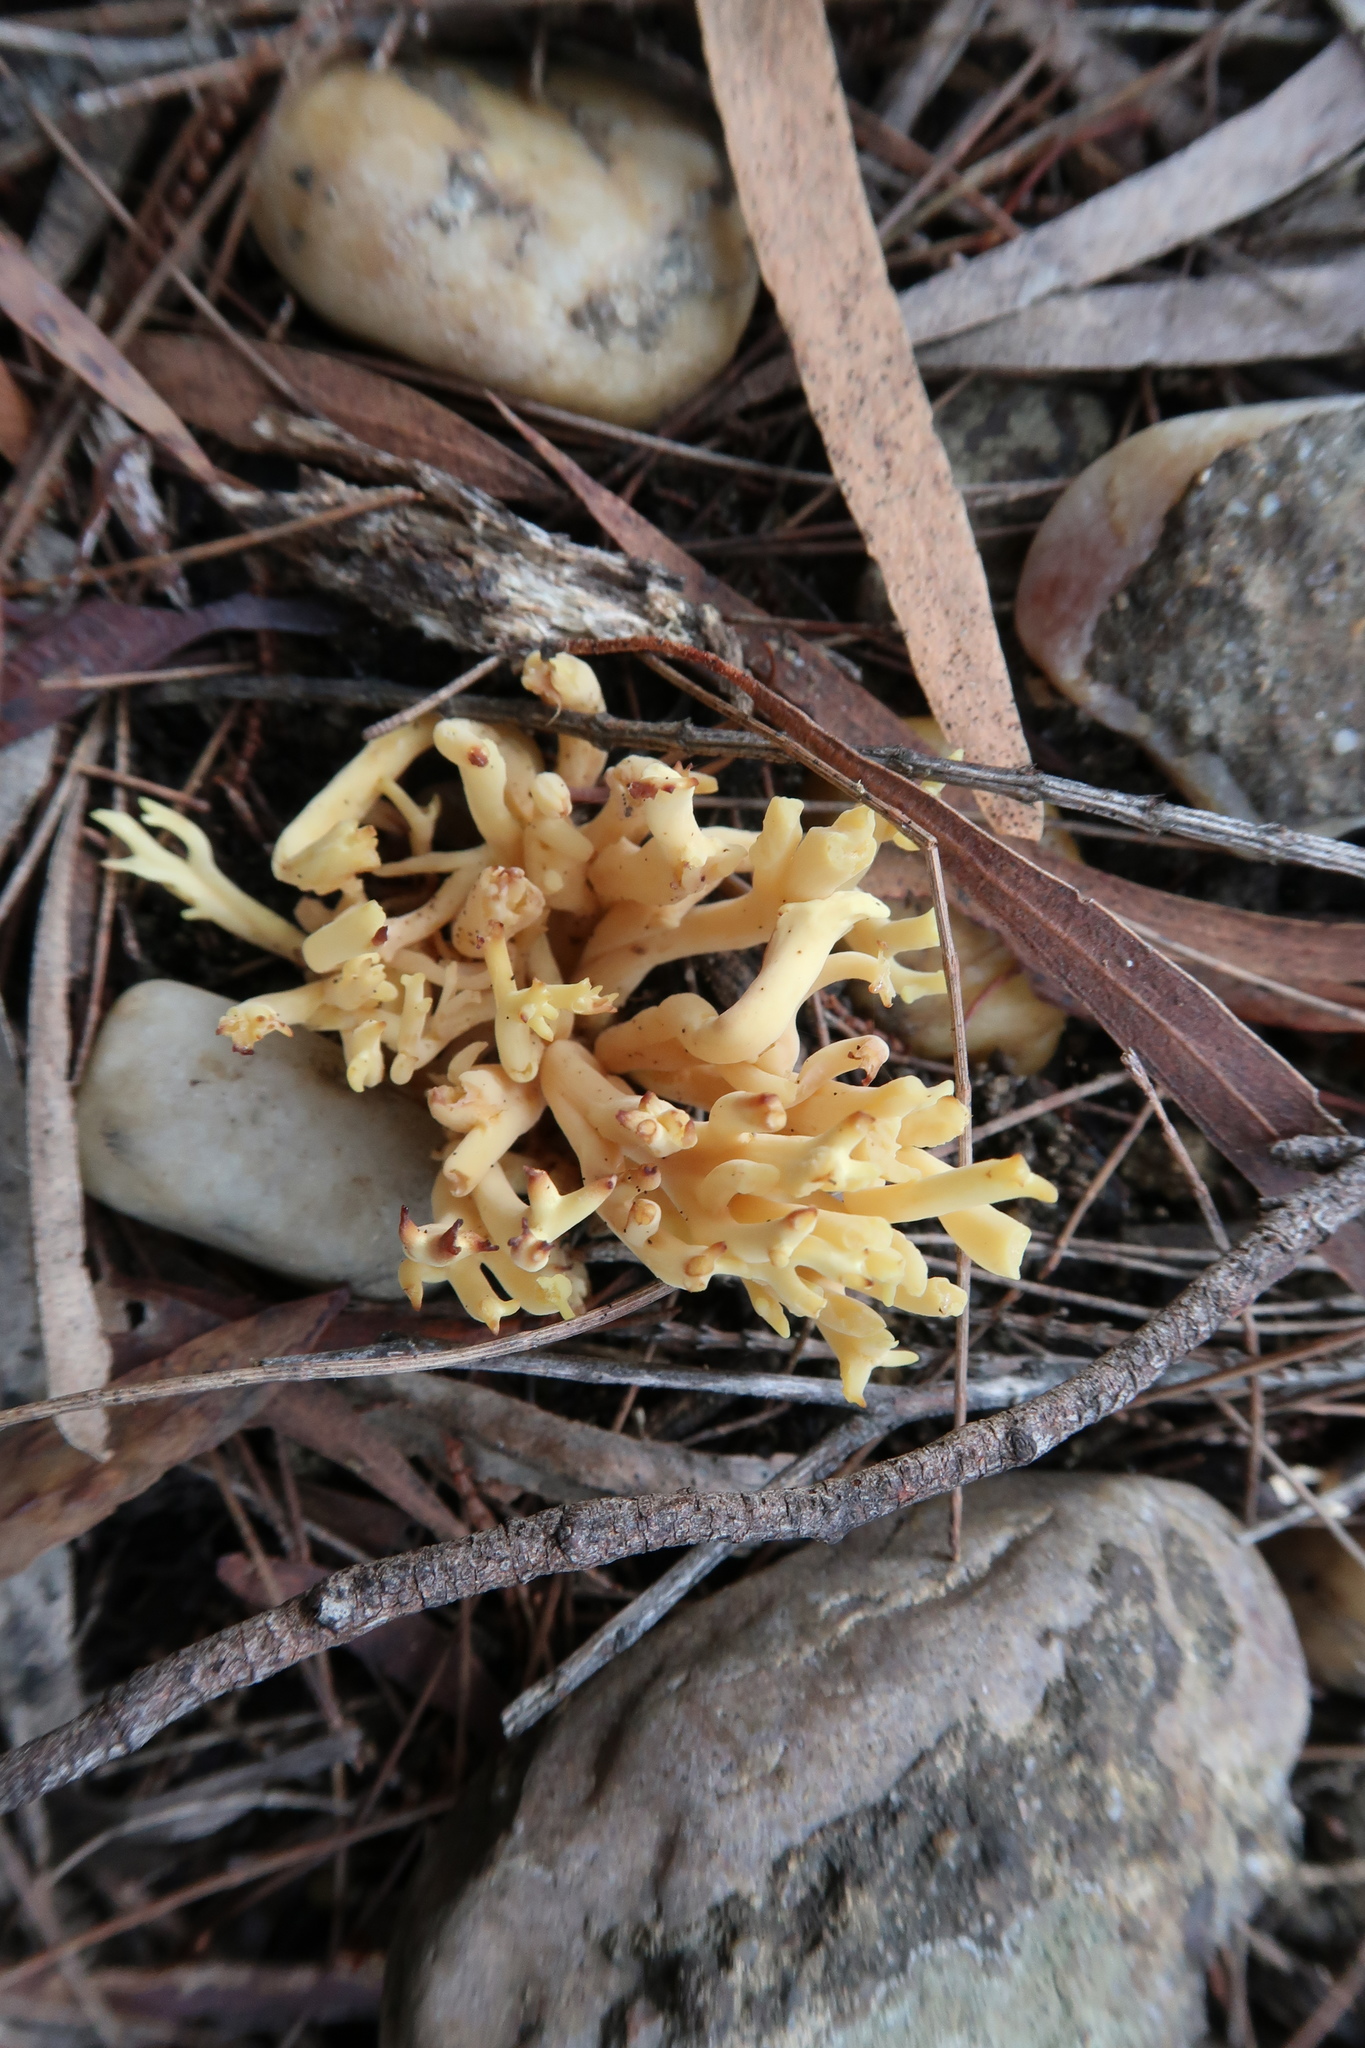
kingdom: Fungi
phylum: Basidiomycota
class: Agaricomycetes
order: Gomphales
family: Gomphaceae
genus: Ramaria
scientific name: Ramaria lorithamnus
